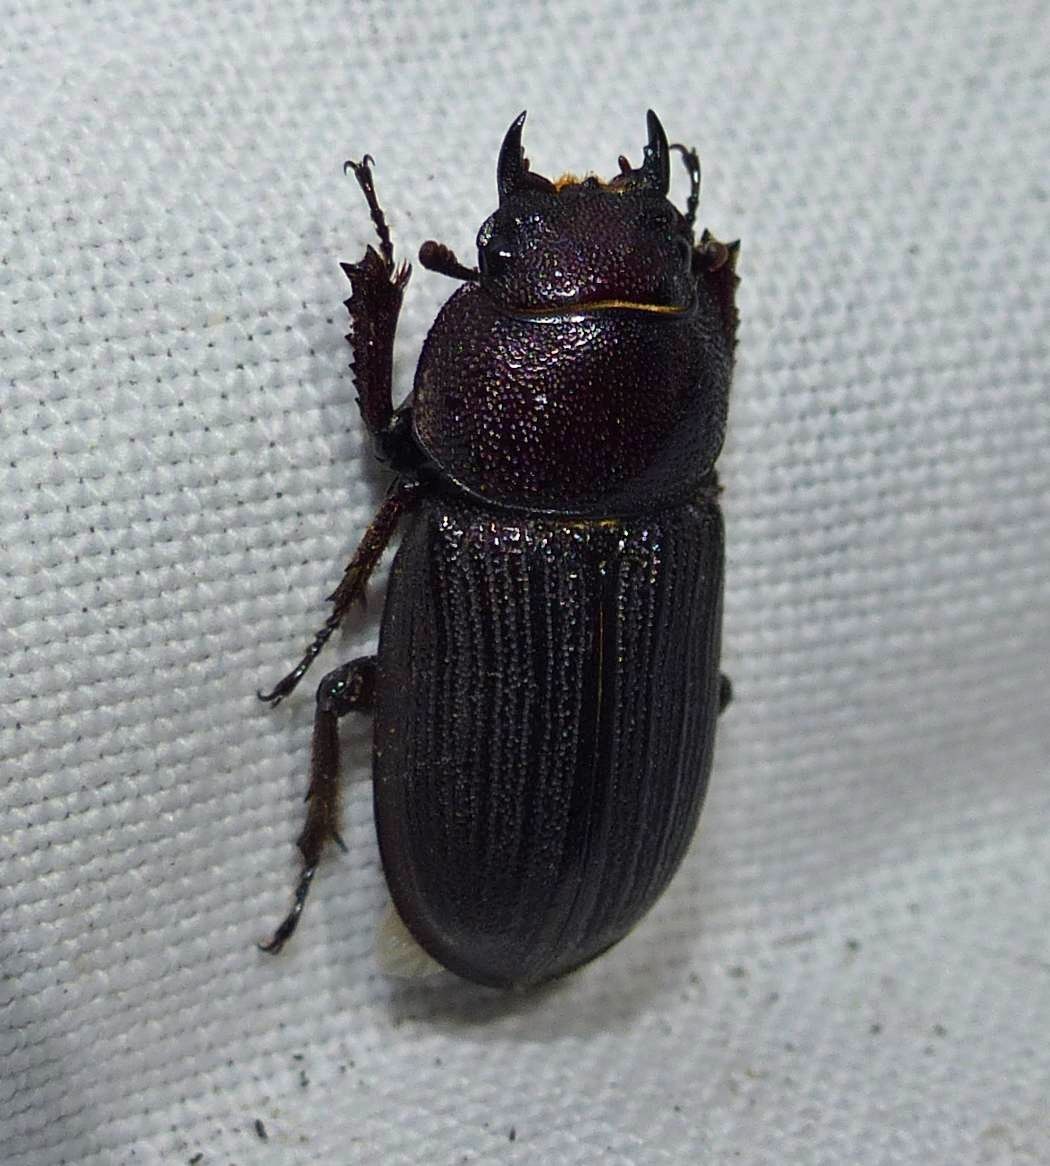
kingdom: Animalia
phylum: Arthropoda
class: Insecta
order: Coleoptera
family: Lucanidae
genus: Dorcus
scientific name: Dorcus parallelus
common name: Antelope beetle
